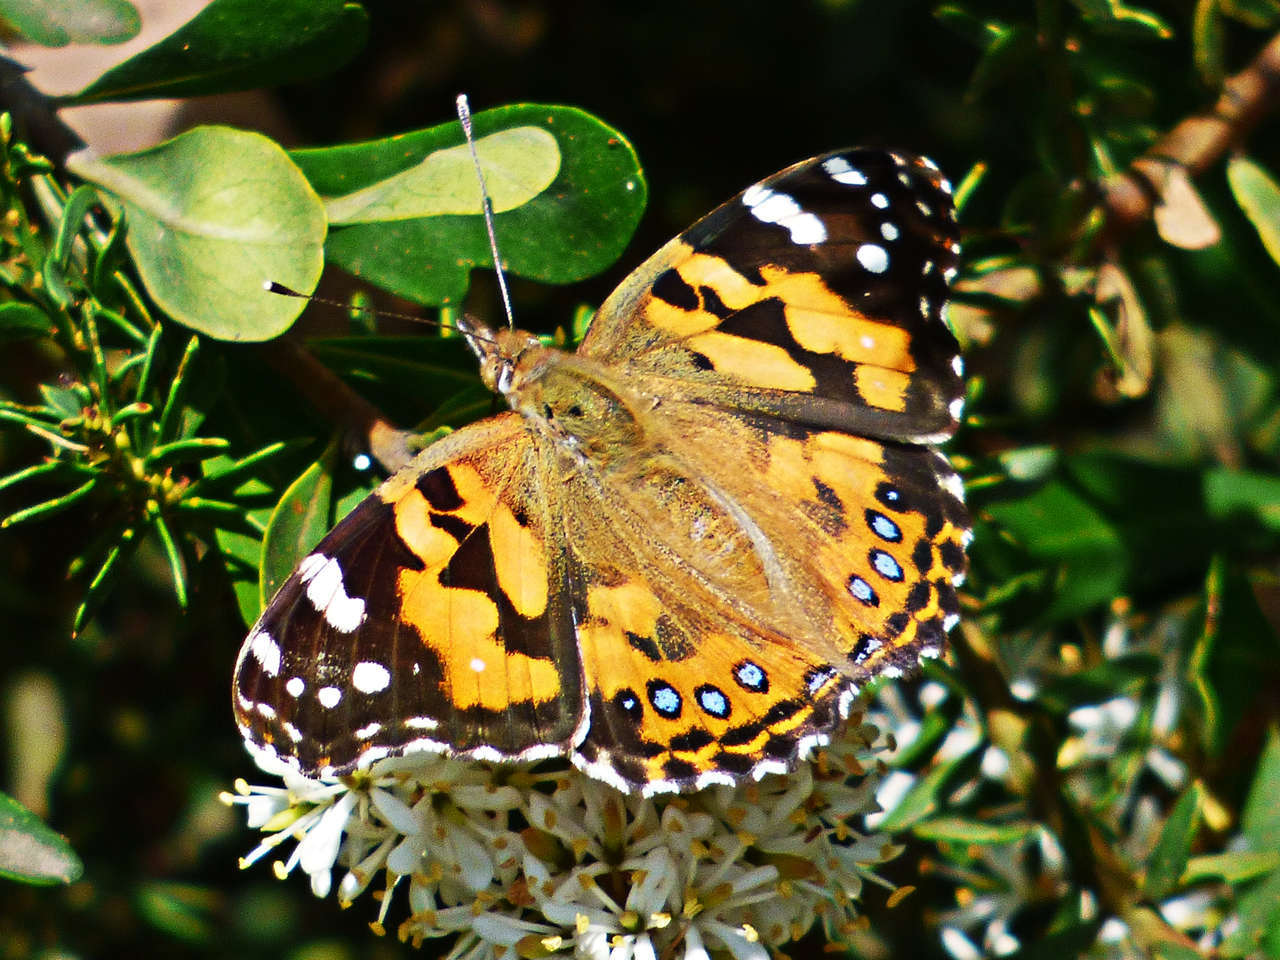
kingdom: Animalia
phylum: Arthropoda
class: Insecta
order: Lepidoptera
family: Nymphalidae
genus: Vanessa
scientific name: Vanessa kershawi
